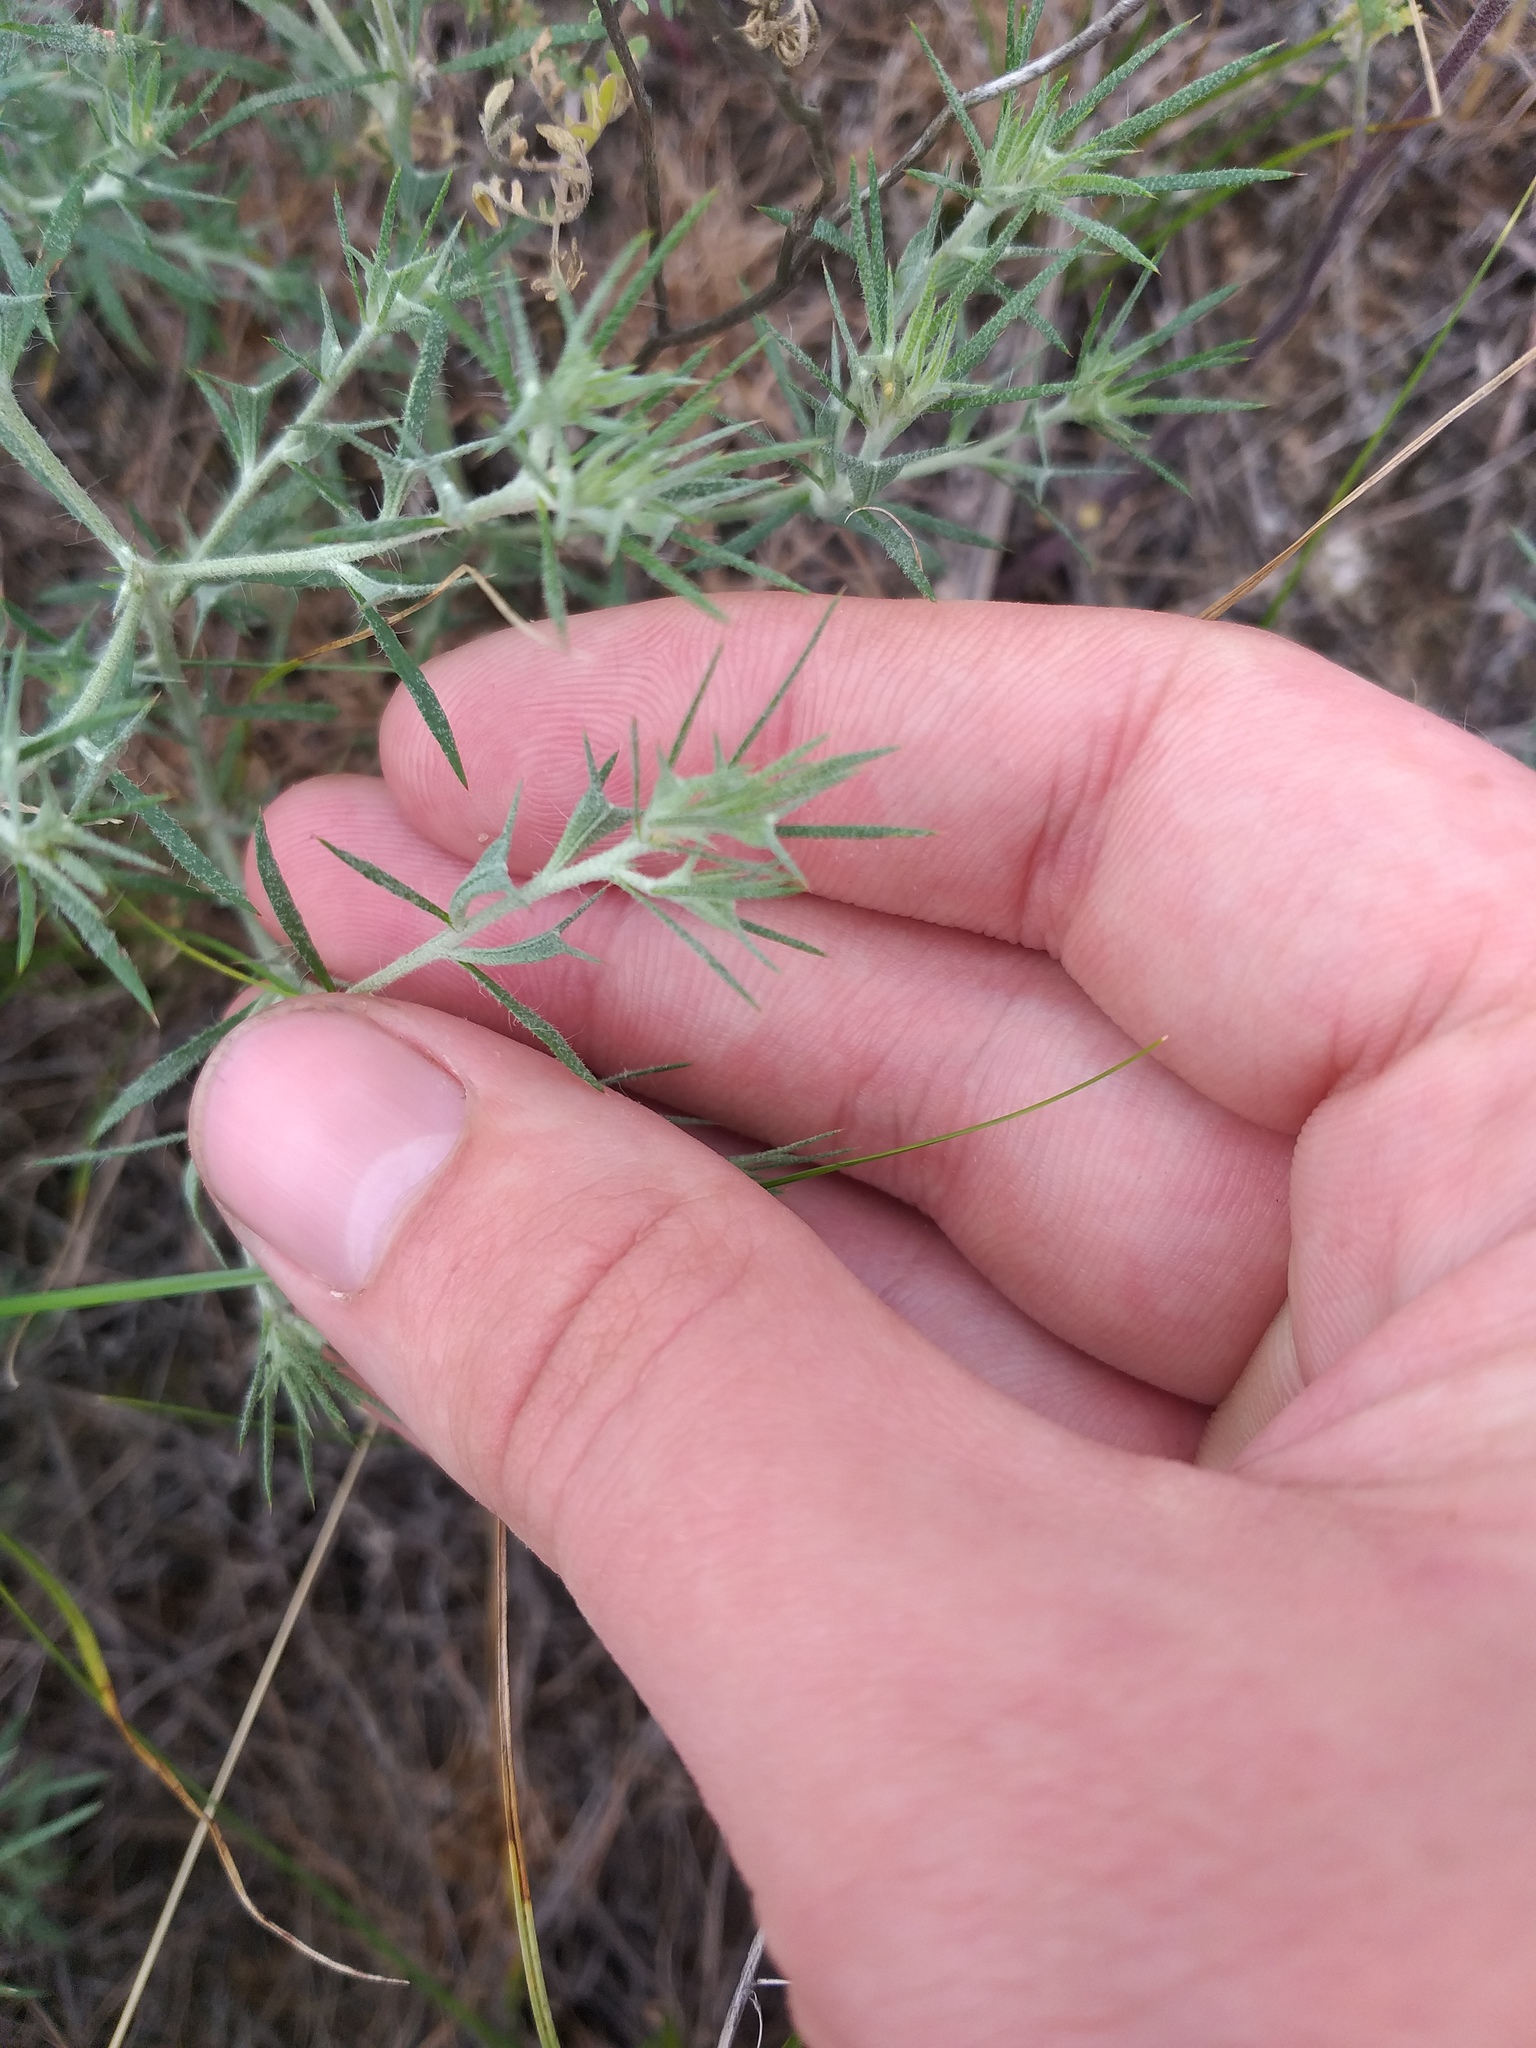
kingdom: Plantae
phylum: Tracheophyta
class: Magnoliopsida
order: Caryophyllales
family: Amaranthaceae
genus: Ceratocarpus
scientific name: Ceratocarpus arenarius
